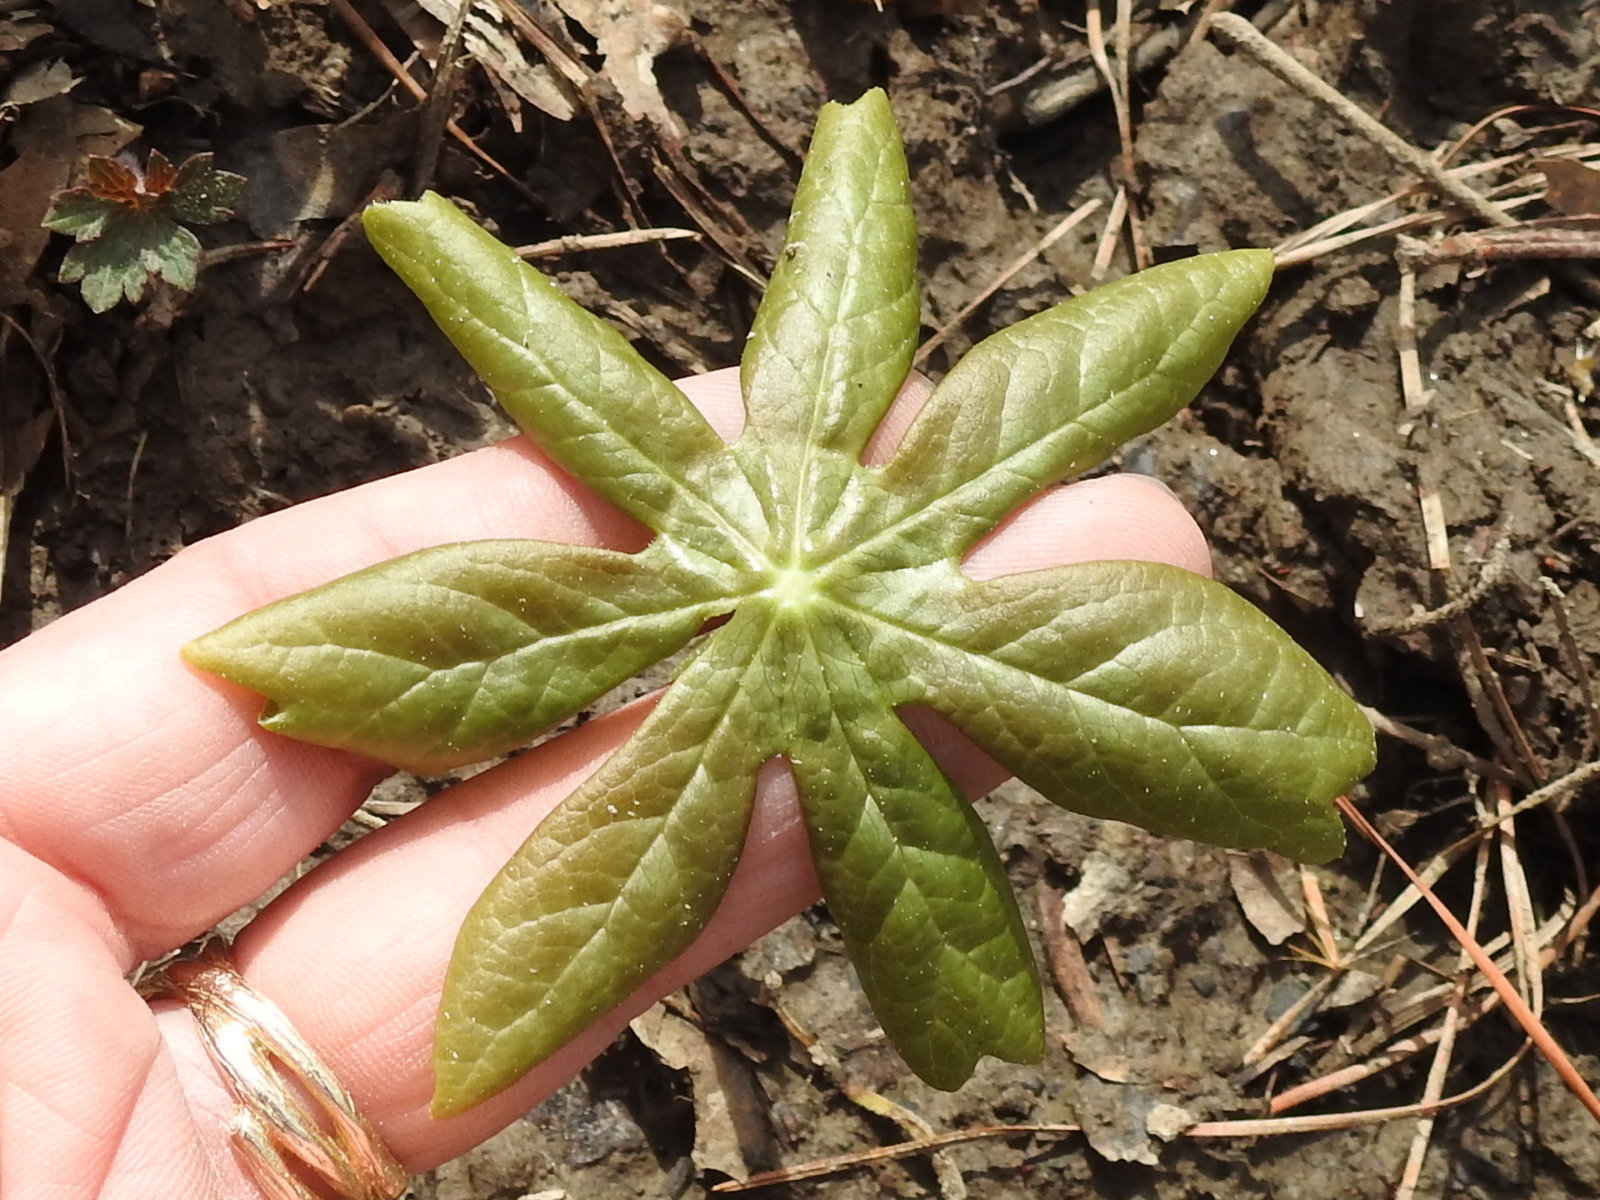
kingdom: Plantae
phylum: Tracheophyta
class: Magnoliopsida
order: Ranunculales
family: Berberidaceae
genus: Podophyllum
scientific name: Podophyllum peltatum
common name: Wild mandrake
